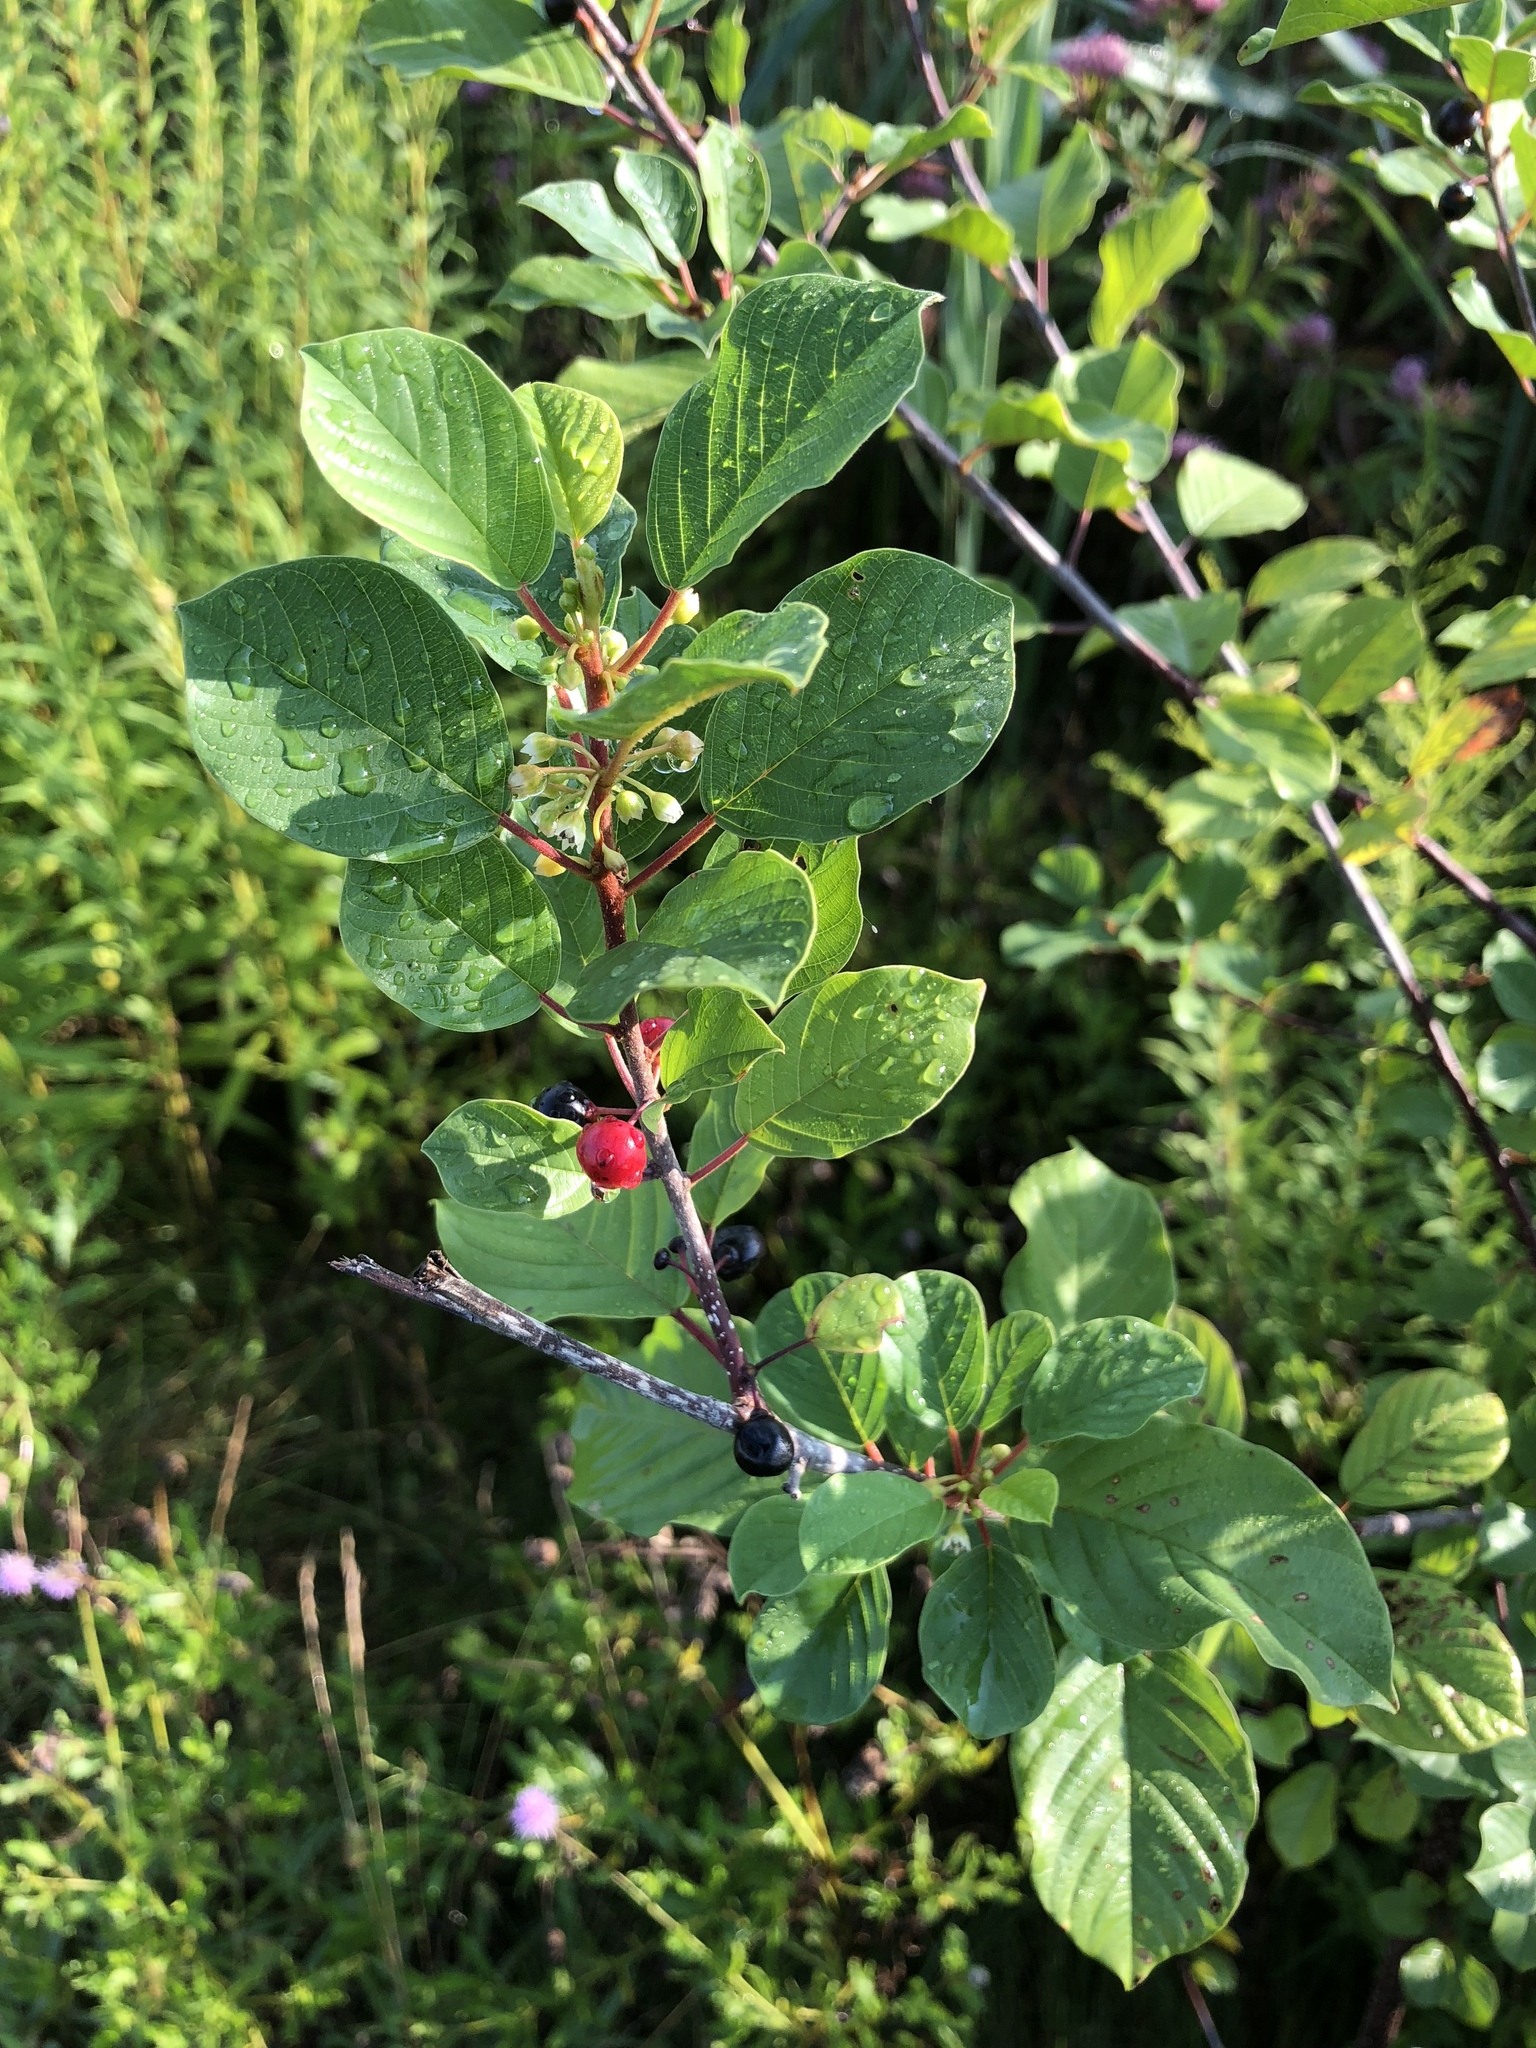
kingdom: Plantae
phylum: Tracheophyta
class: Magnoliopsida
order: Rosales
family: Rhamnaceae
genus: Frangula
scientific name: Frangula alnus
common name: Alder buckthorn
